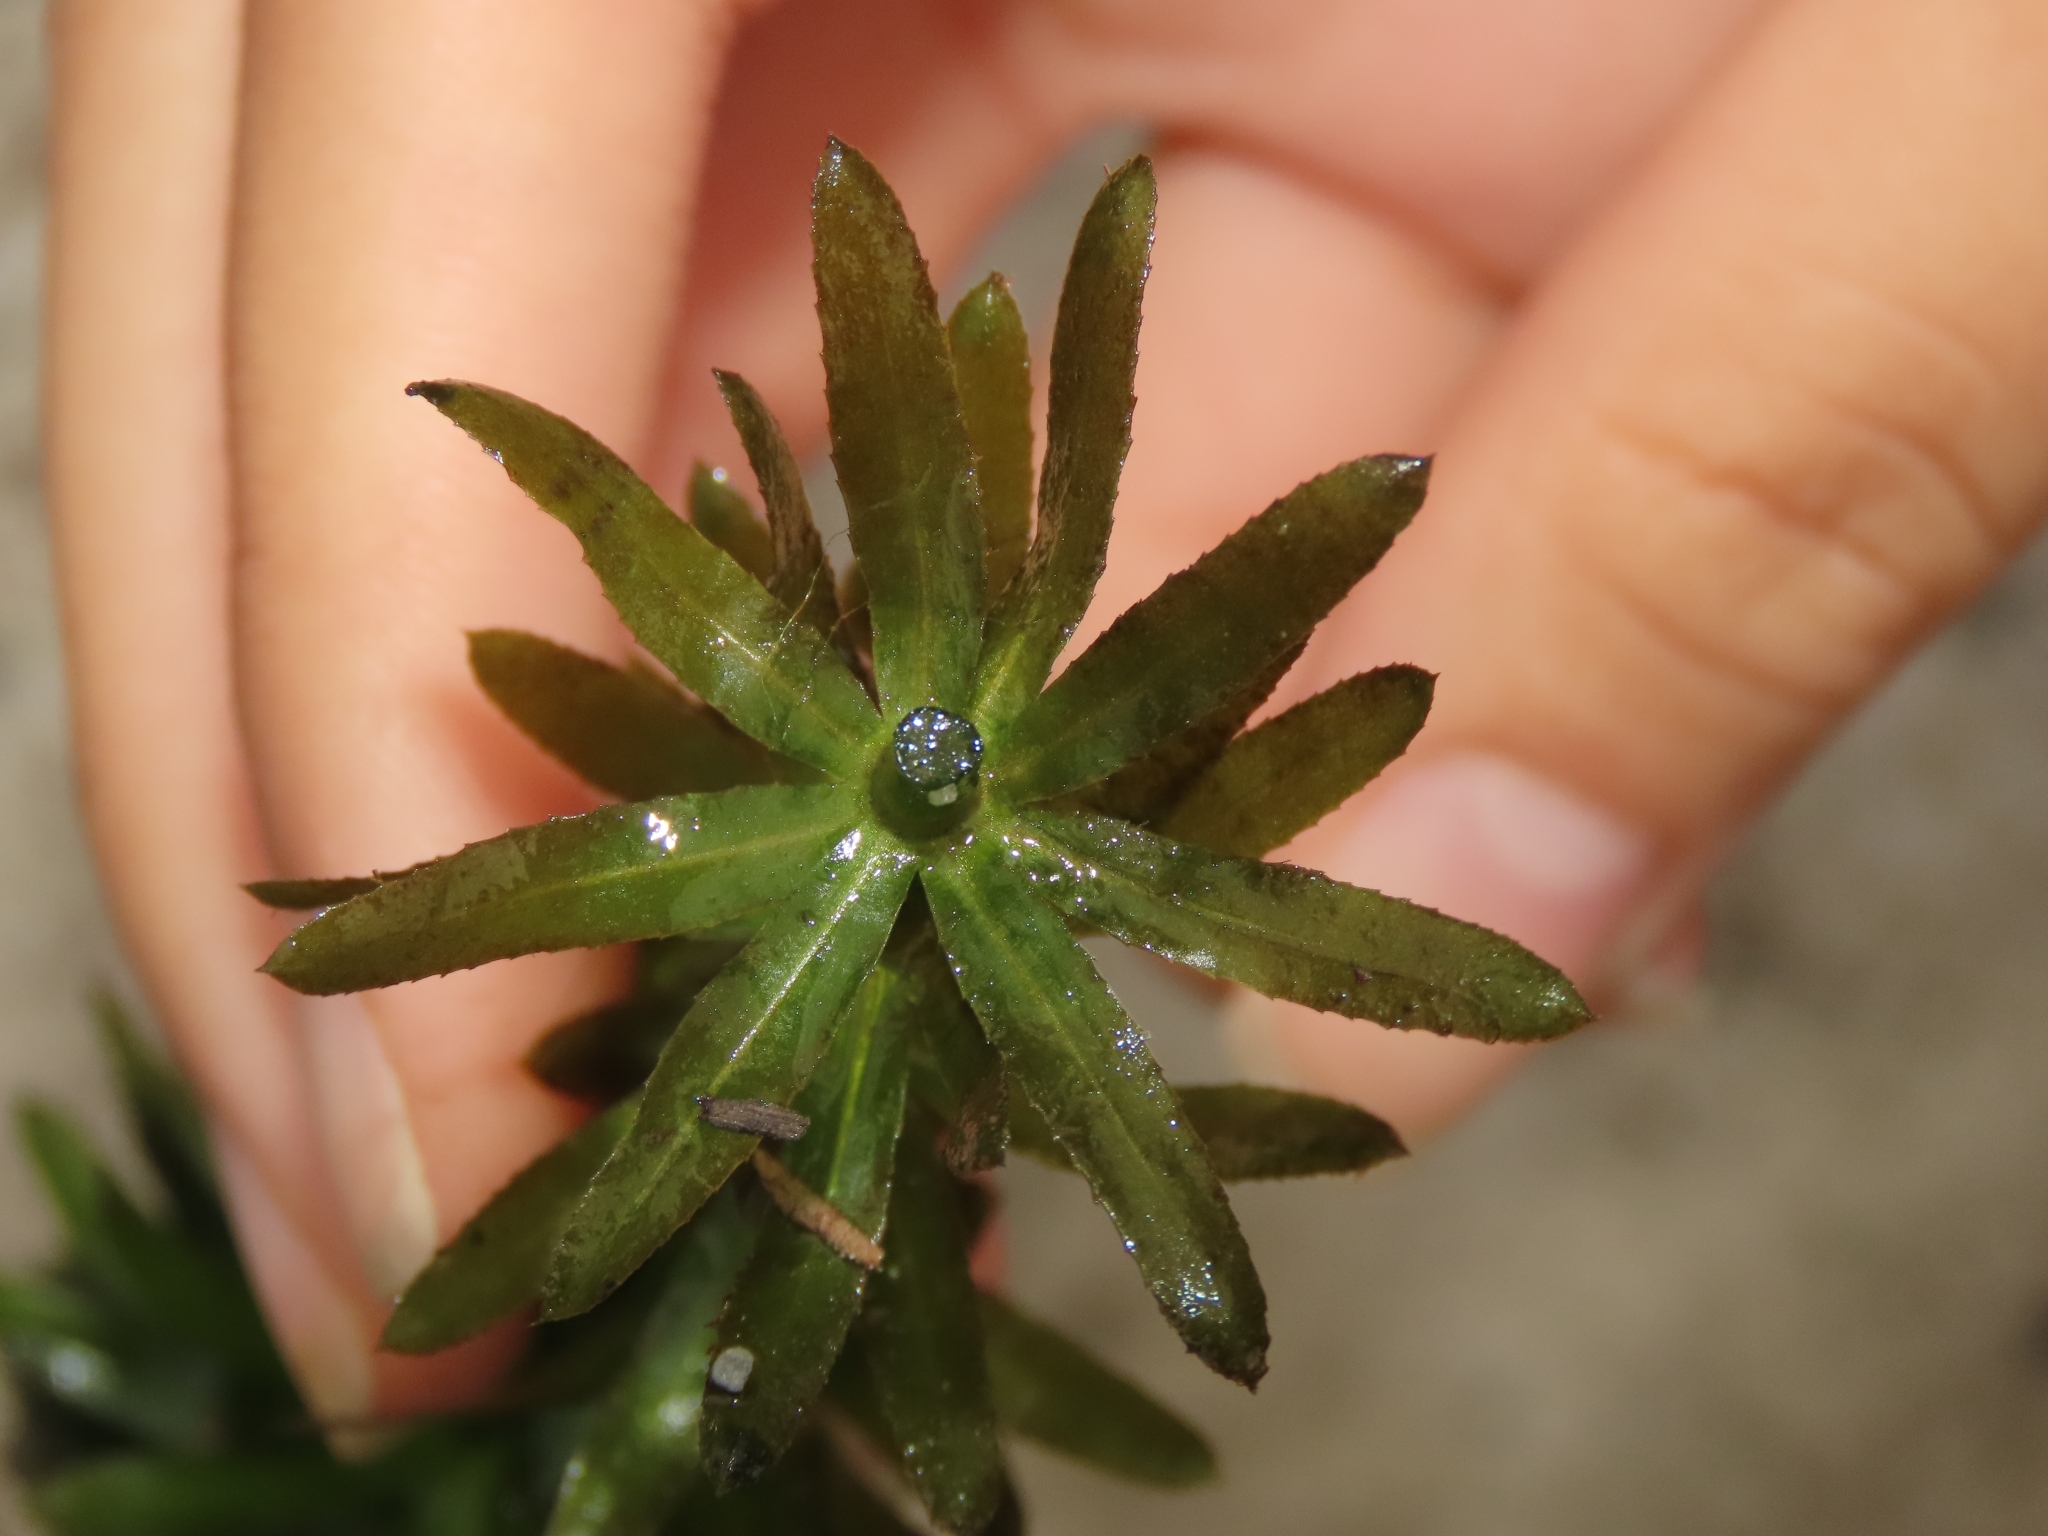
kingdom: Plantae
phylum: Tracheophyta
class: Liliopsida
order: Alismatales
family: Hydrocharitaceae
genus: Hydrilla
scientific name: Hydrilla verticillata
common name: Florida-elodea
